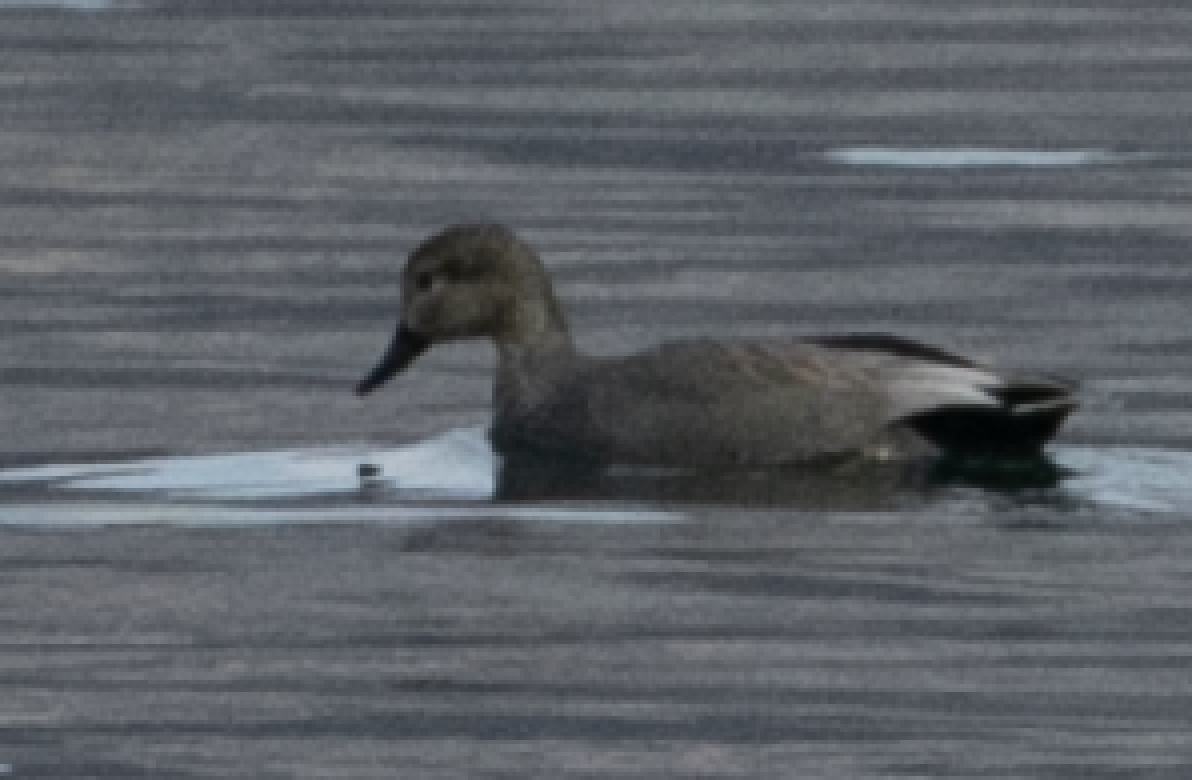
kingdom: Animalia
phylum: Chordata
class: Aves
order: Anseriformes
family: Anatidae
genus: Mareca
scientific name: Mareca strepera
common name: Gadwall
